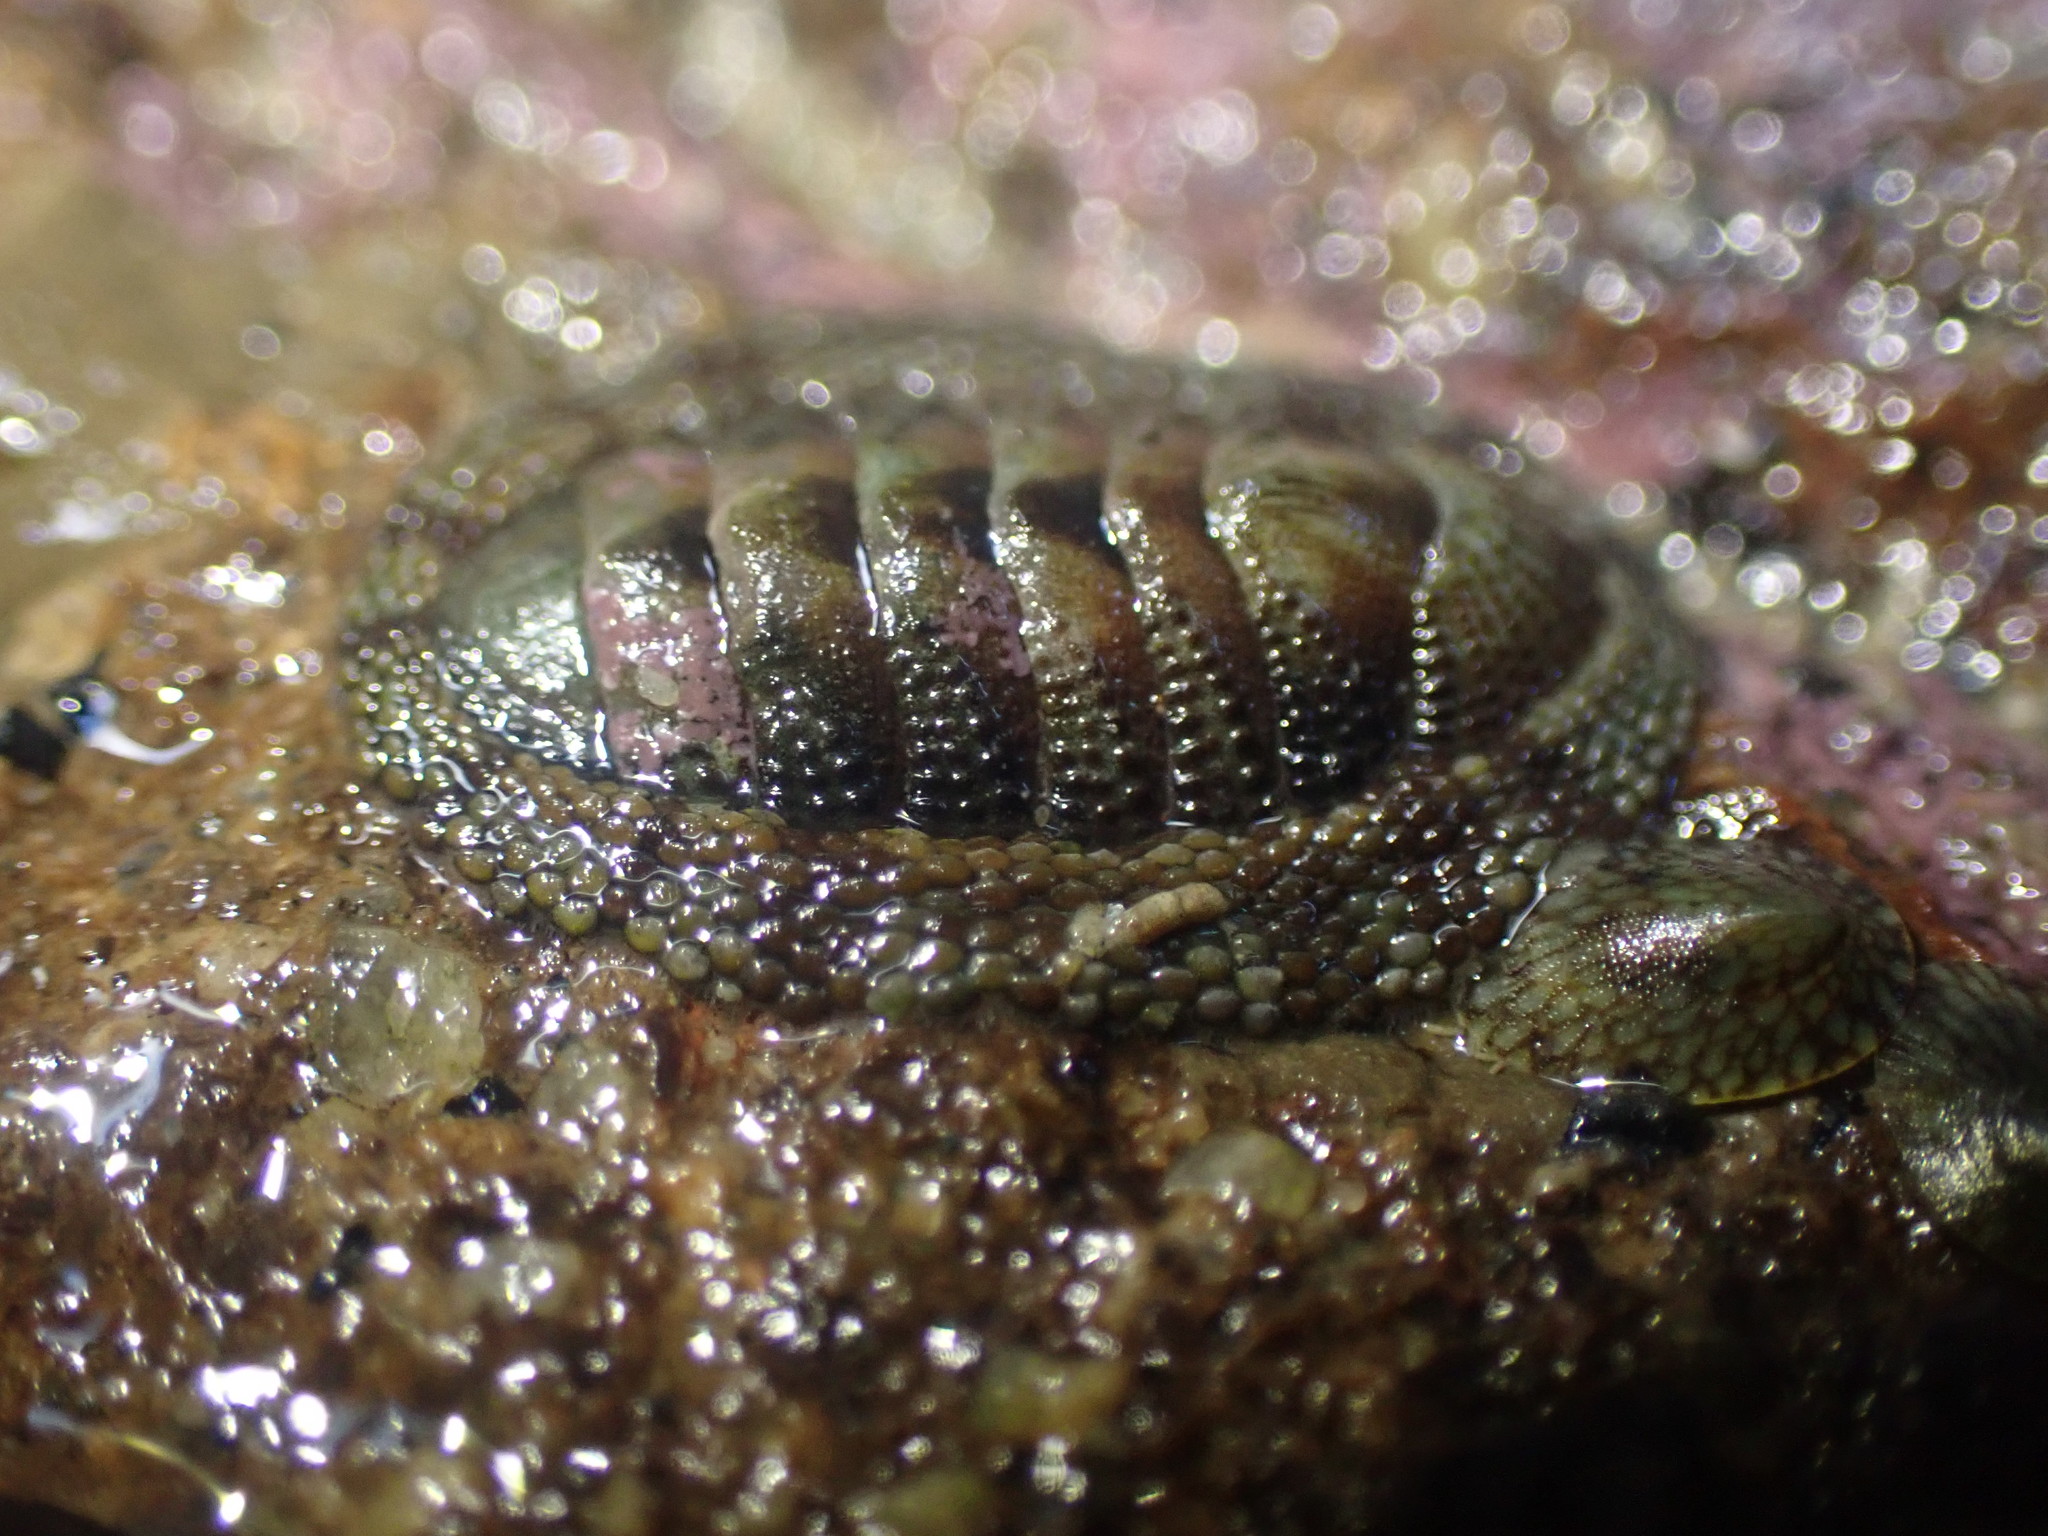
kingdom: Animalia
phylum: Mollusca
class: Polyplacophora
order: Chitonida
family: Chitonidae
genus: Sypharochiton
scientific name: Sypharochiton pelliserpentis
